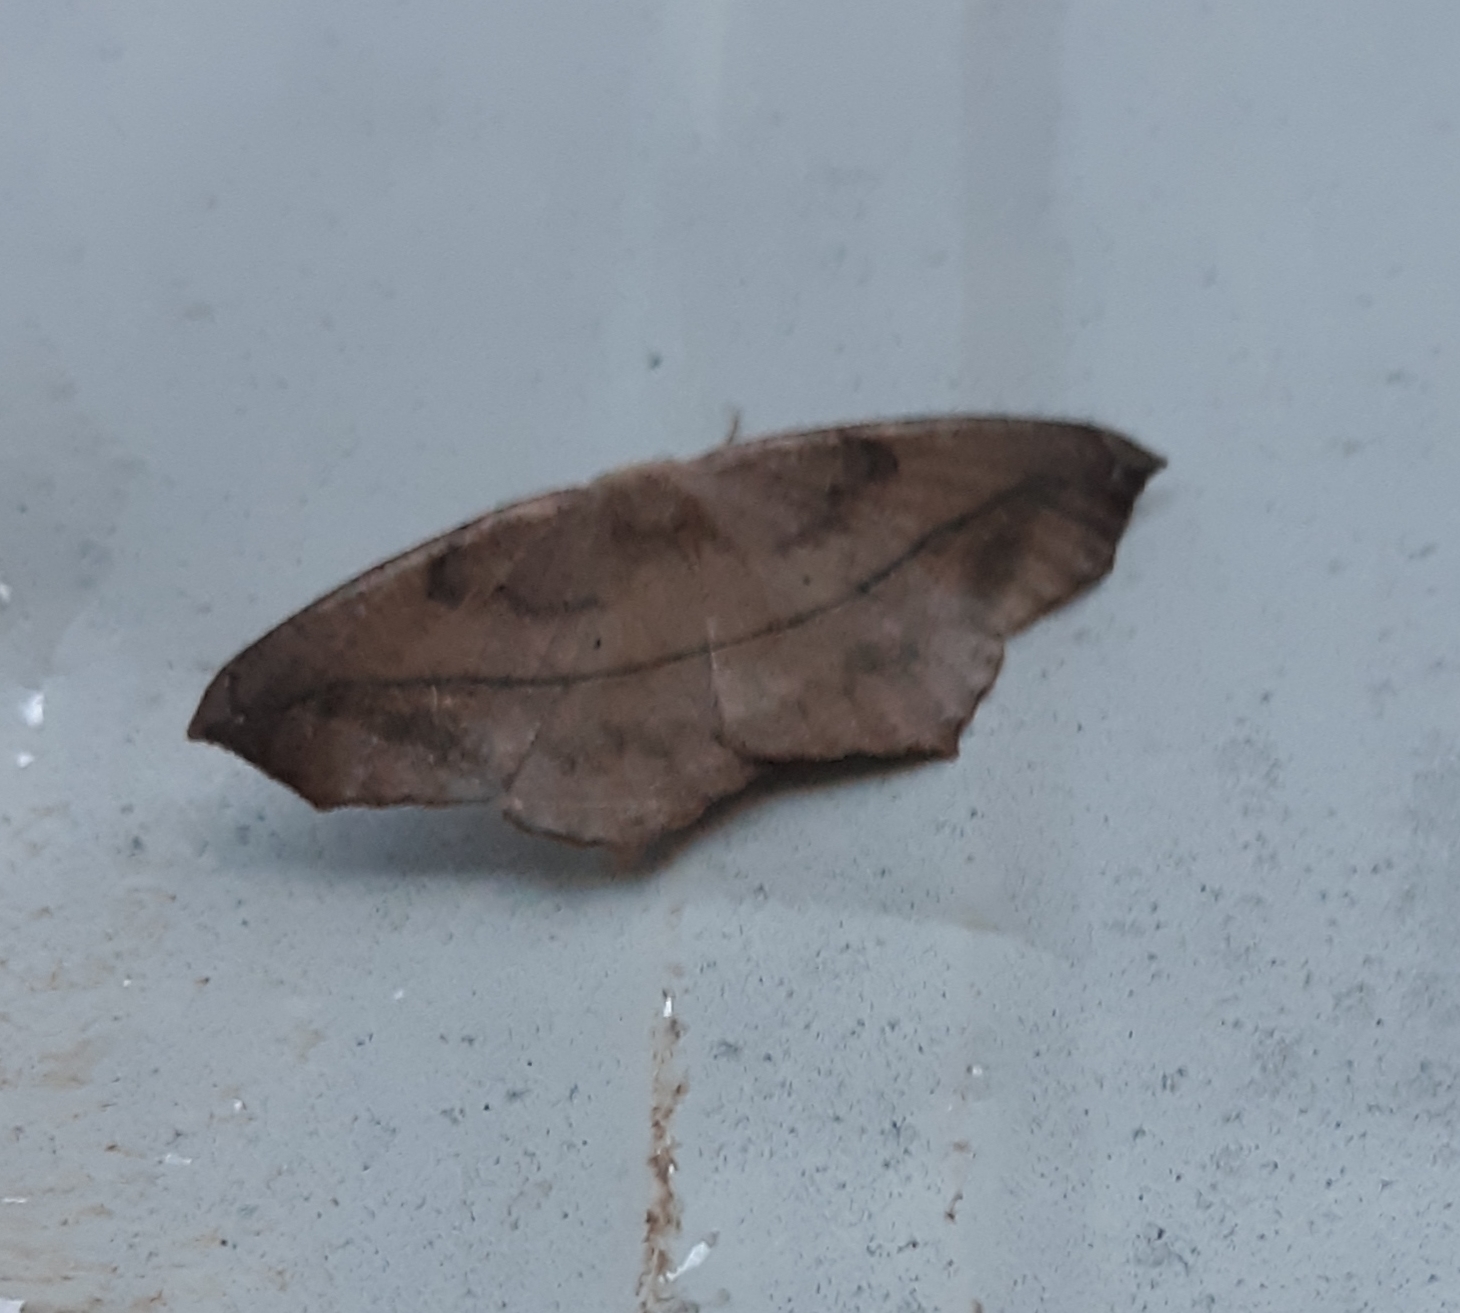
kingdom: Animalia
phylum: Arthropoda
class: Insecta
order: Lepidoptera
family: Geometridae
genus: Prochoerodes
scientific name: Prochoerodes lineola
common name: Large maple spanworm
